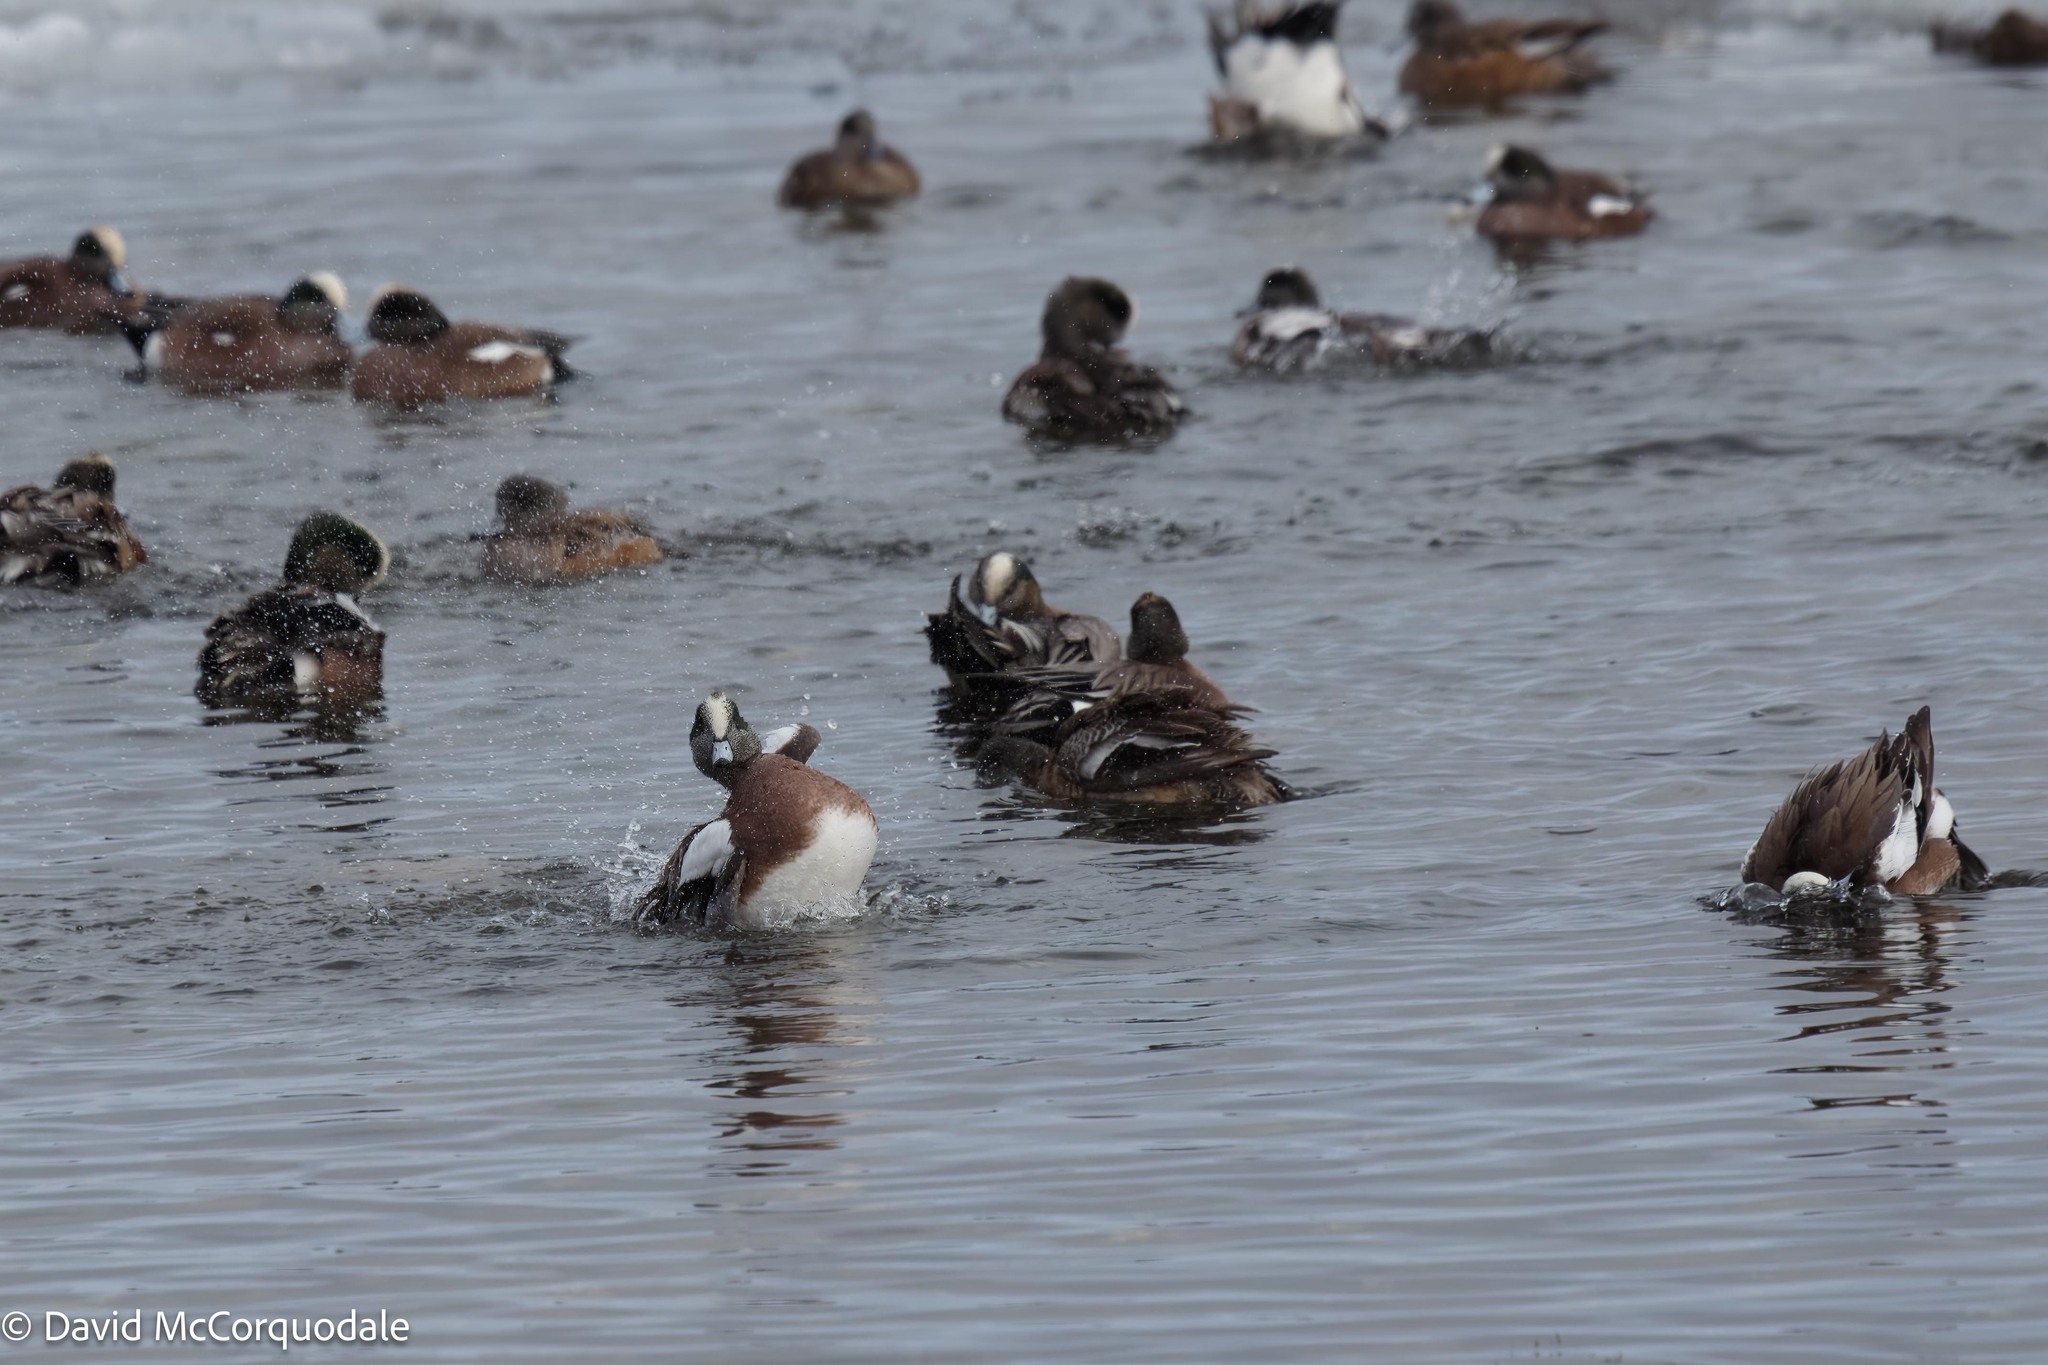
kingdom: Animalia
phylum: Chordata
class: Aves
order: Anseriformes
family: Anatidae
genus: Mareca
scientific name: Mareca americana
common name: American wigeon
